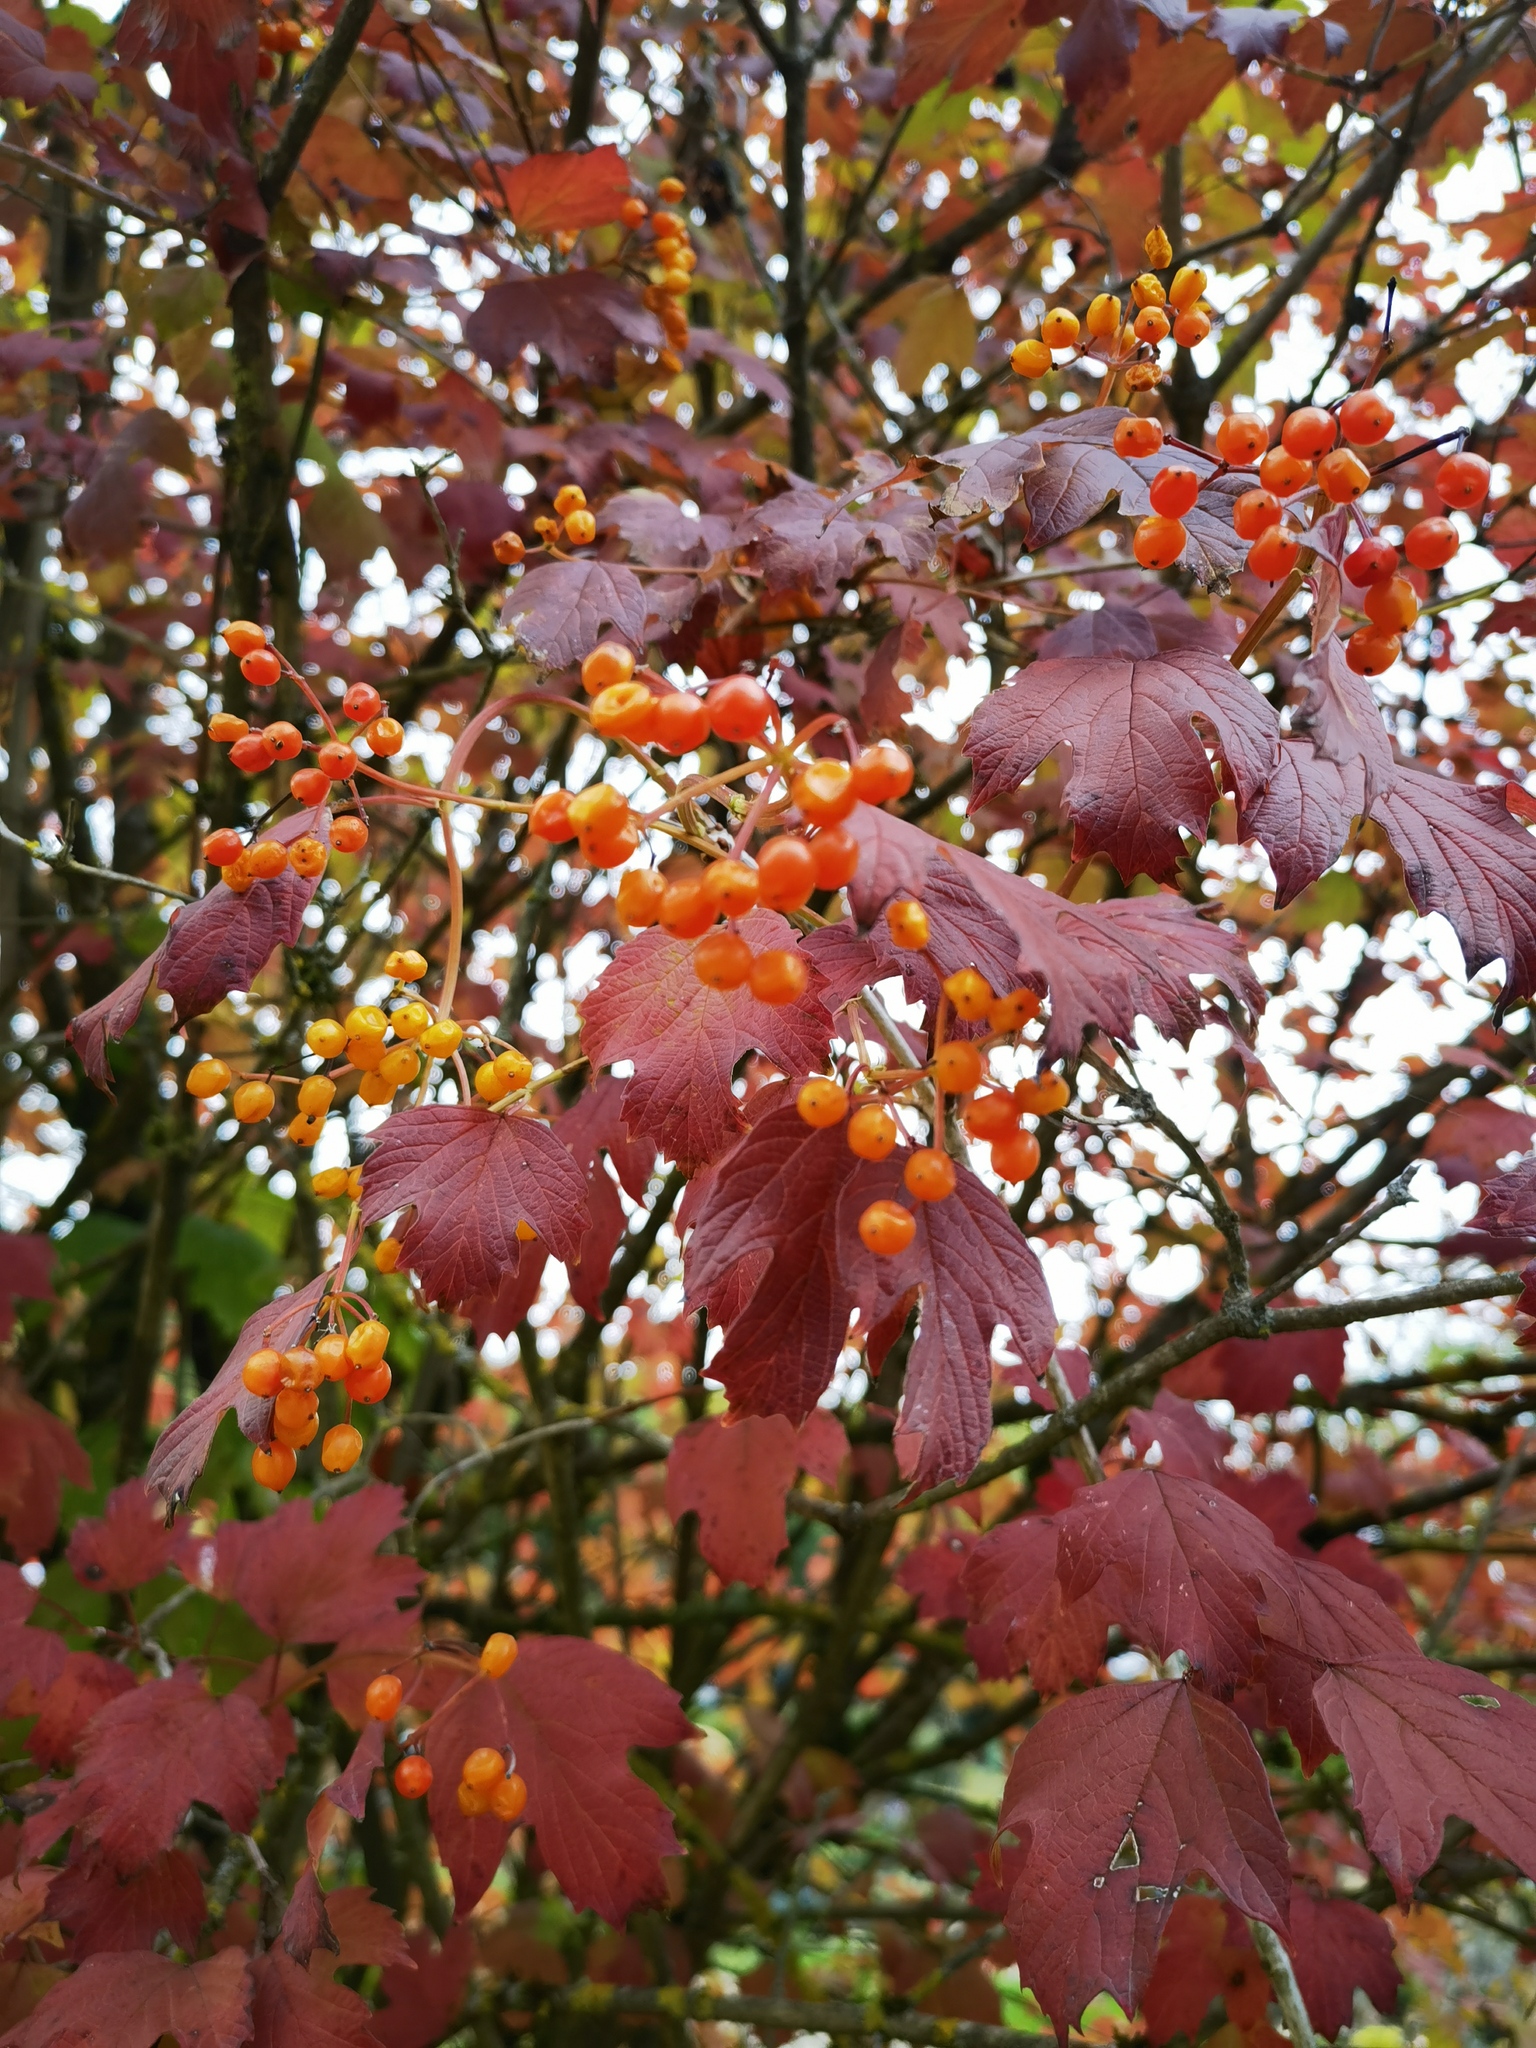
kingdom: Plantae
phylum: Tracheophyta
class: Magnoliopsida
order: Dipsacales
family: Viburnaceae
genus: Viburnum
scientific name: Viburnum opulus
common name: Guelder-rose
